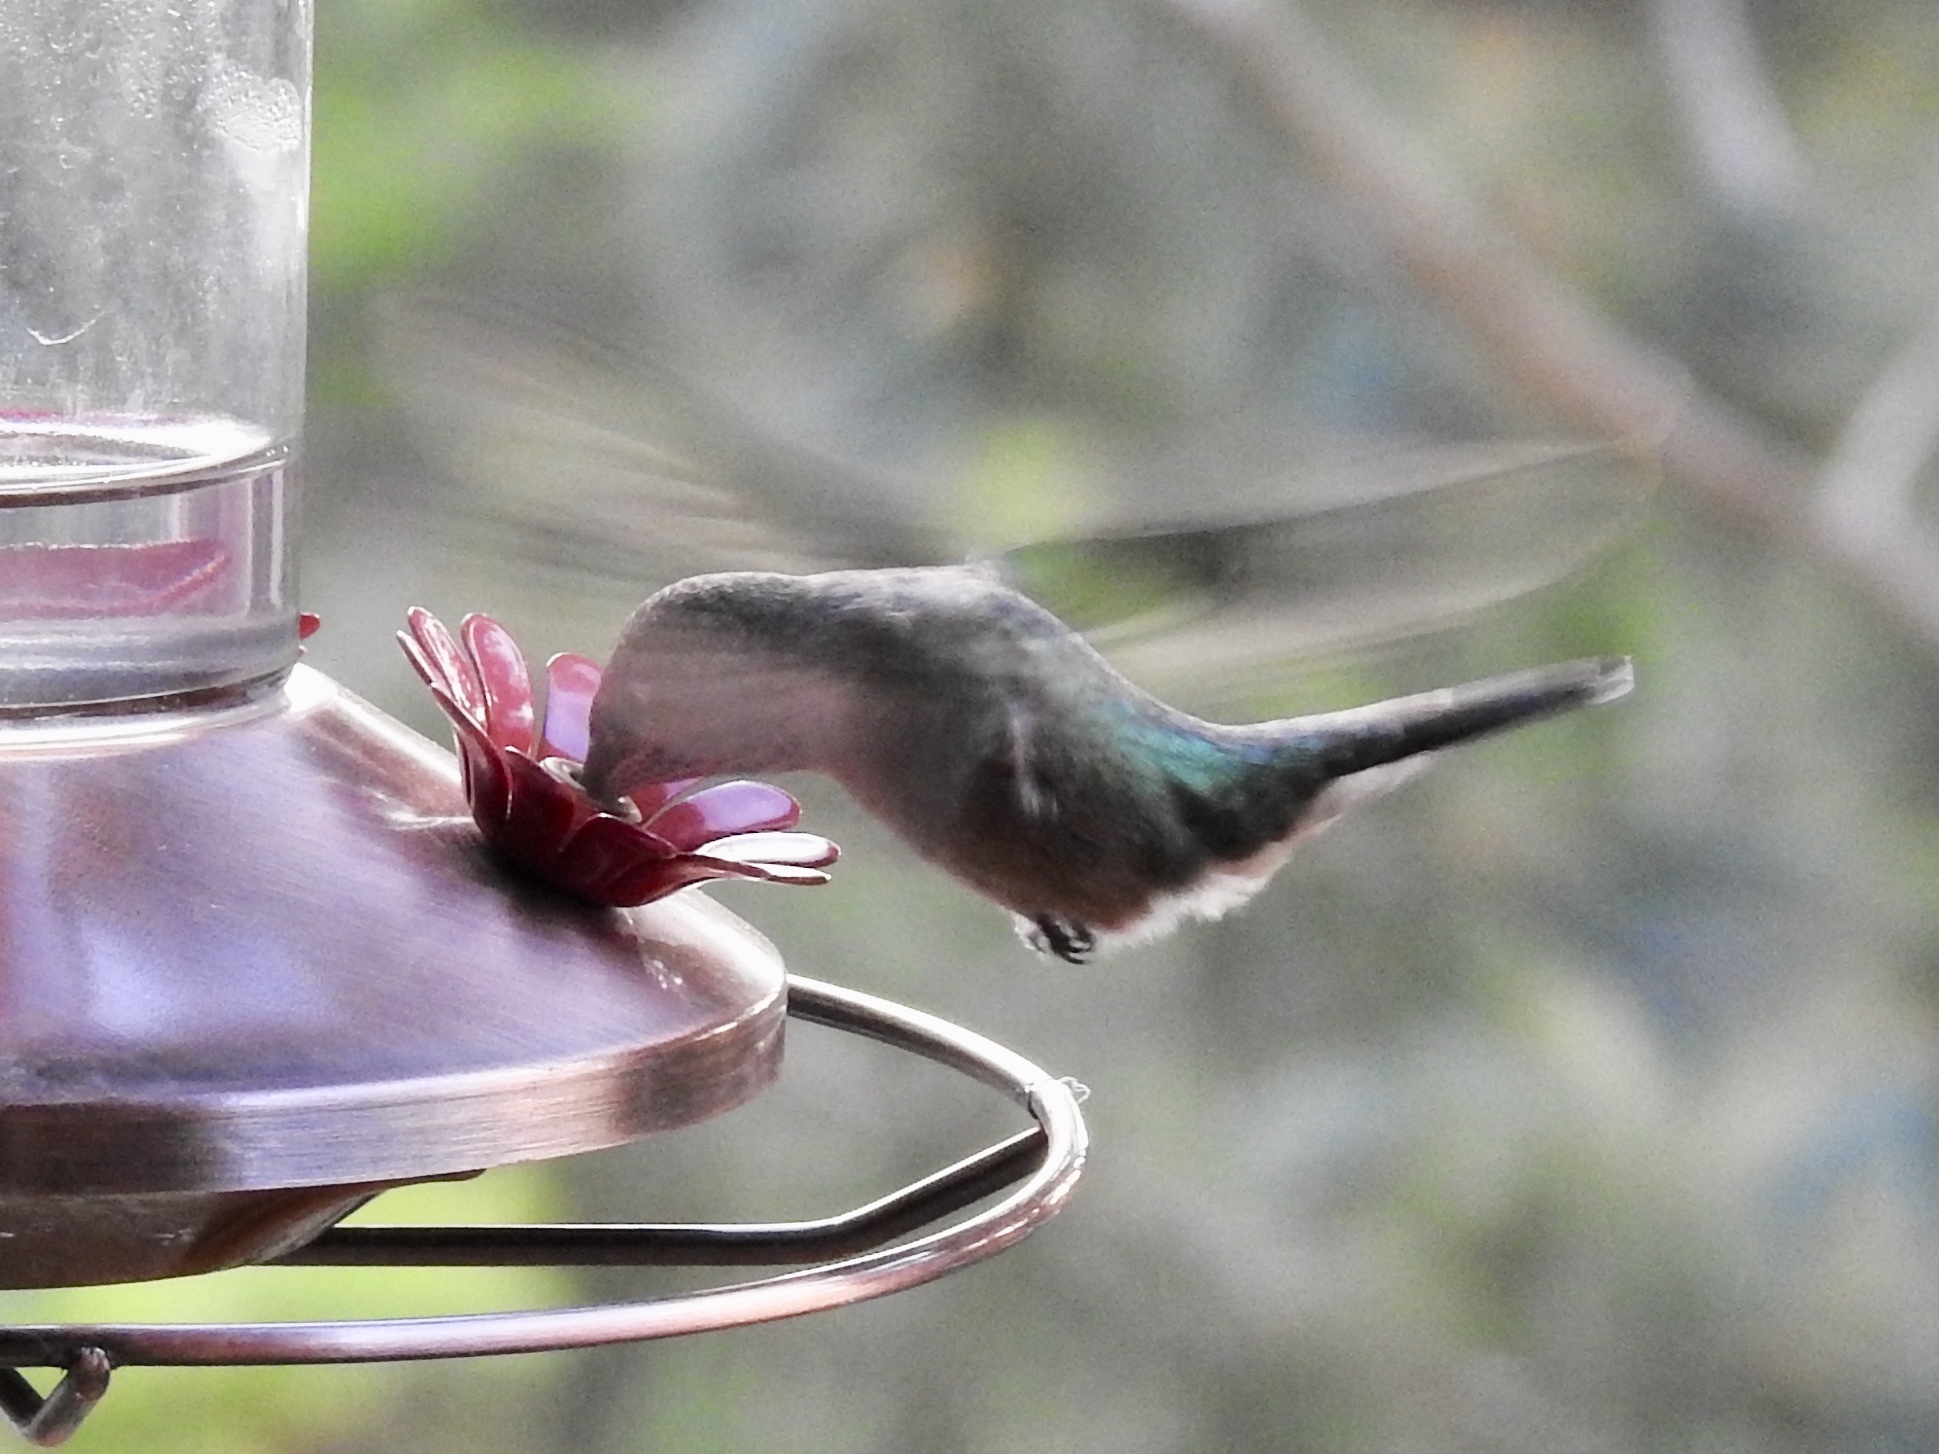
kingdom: Animalia
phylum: Chordata
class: Aves
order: Apodiformes
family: Trochilidae
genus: Selasphorus
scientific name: Selasphorus platycercus
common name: Broad-tailed hummingbird
